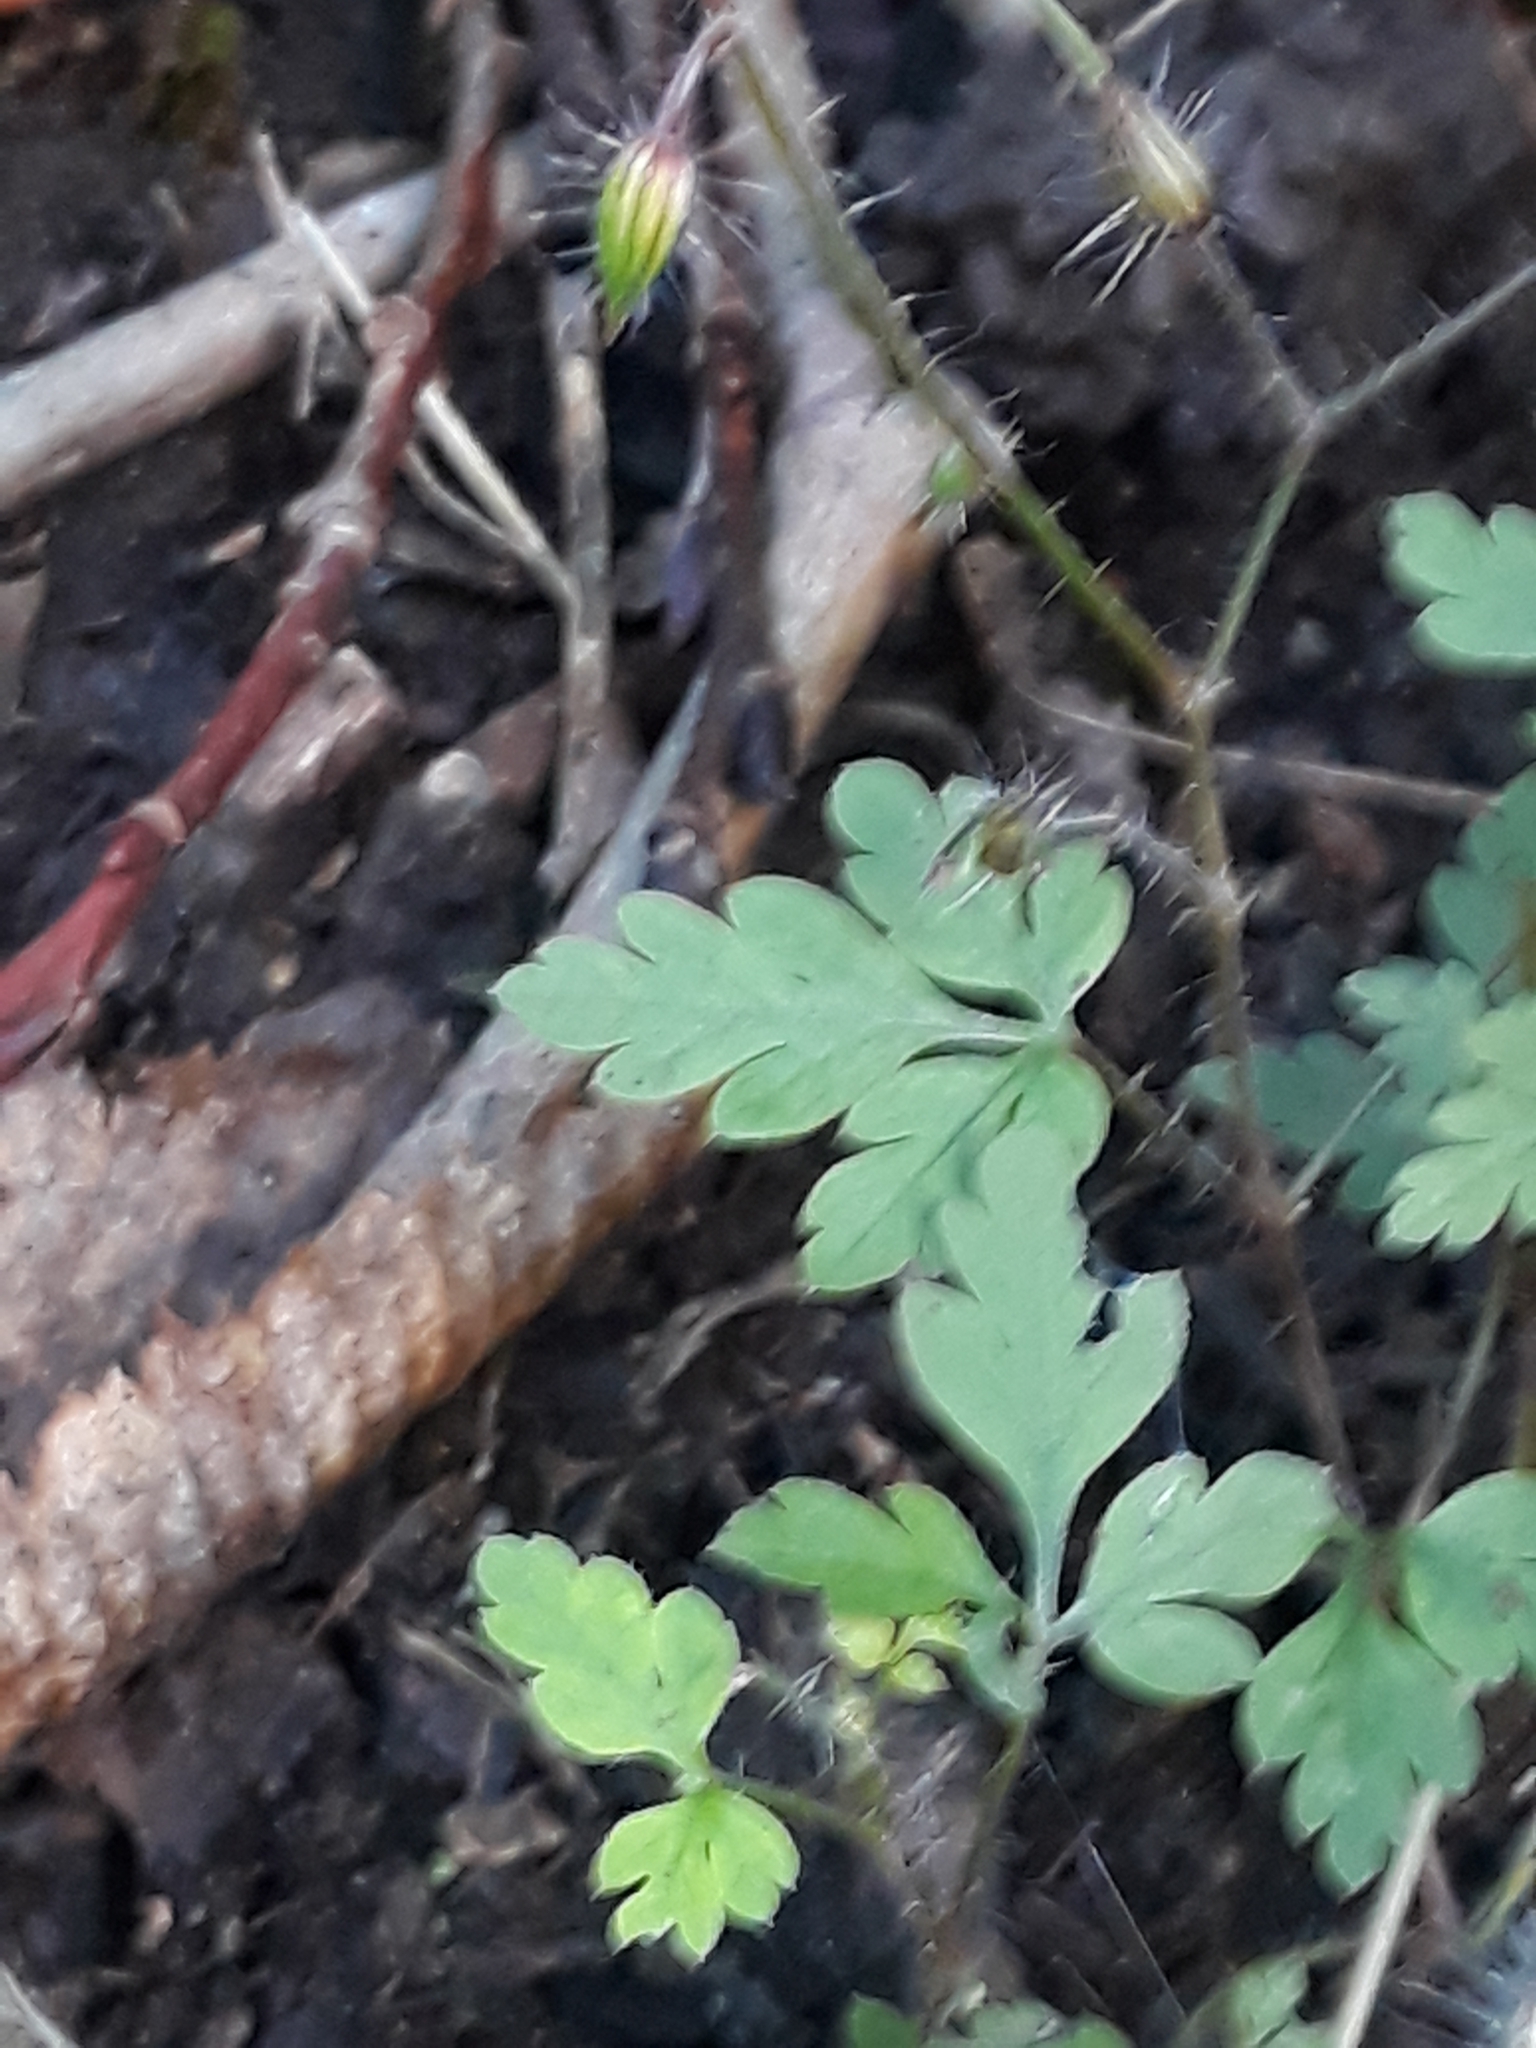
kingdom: Plantae
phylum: Tracheophyta
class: Magnoliopsida
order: Geraniales
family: Geraniaceae
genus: Geranium
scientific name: Geranium robertianum
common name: Herb-robert
